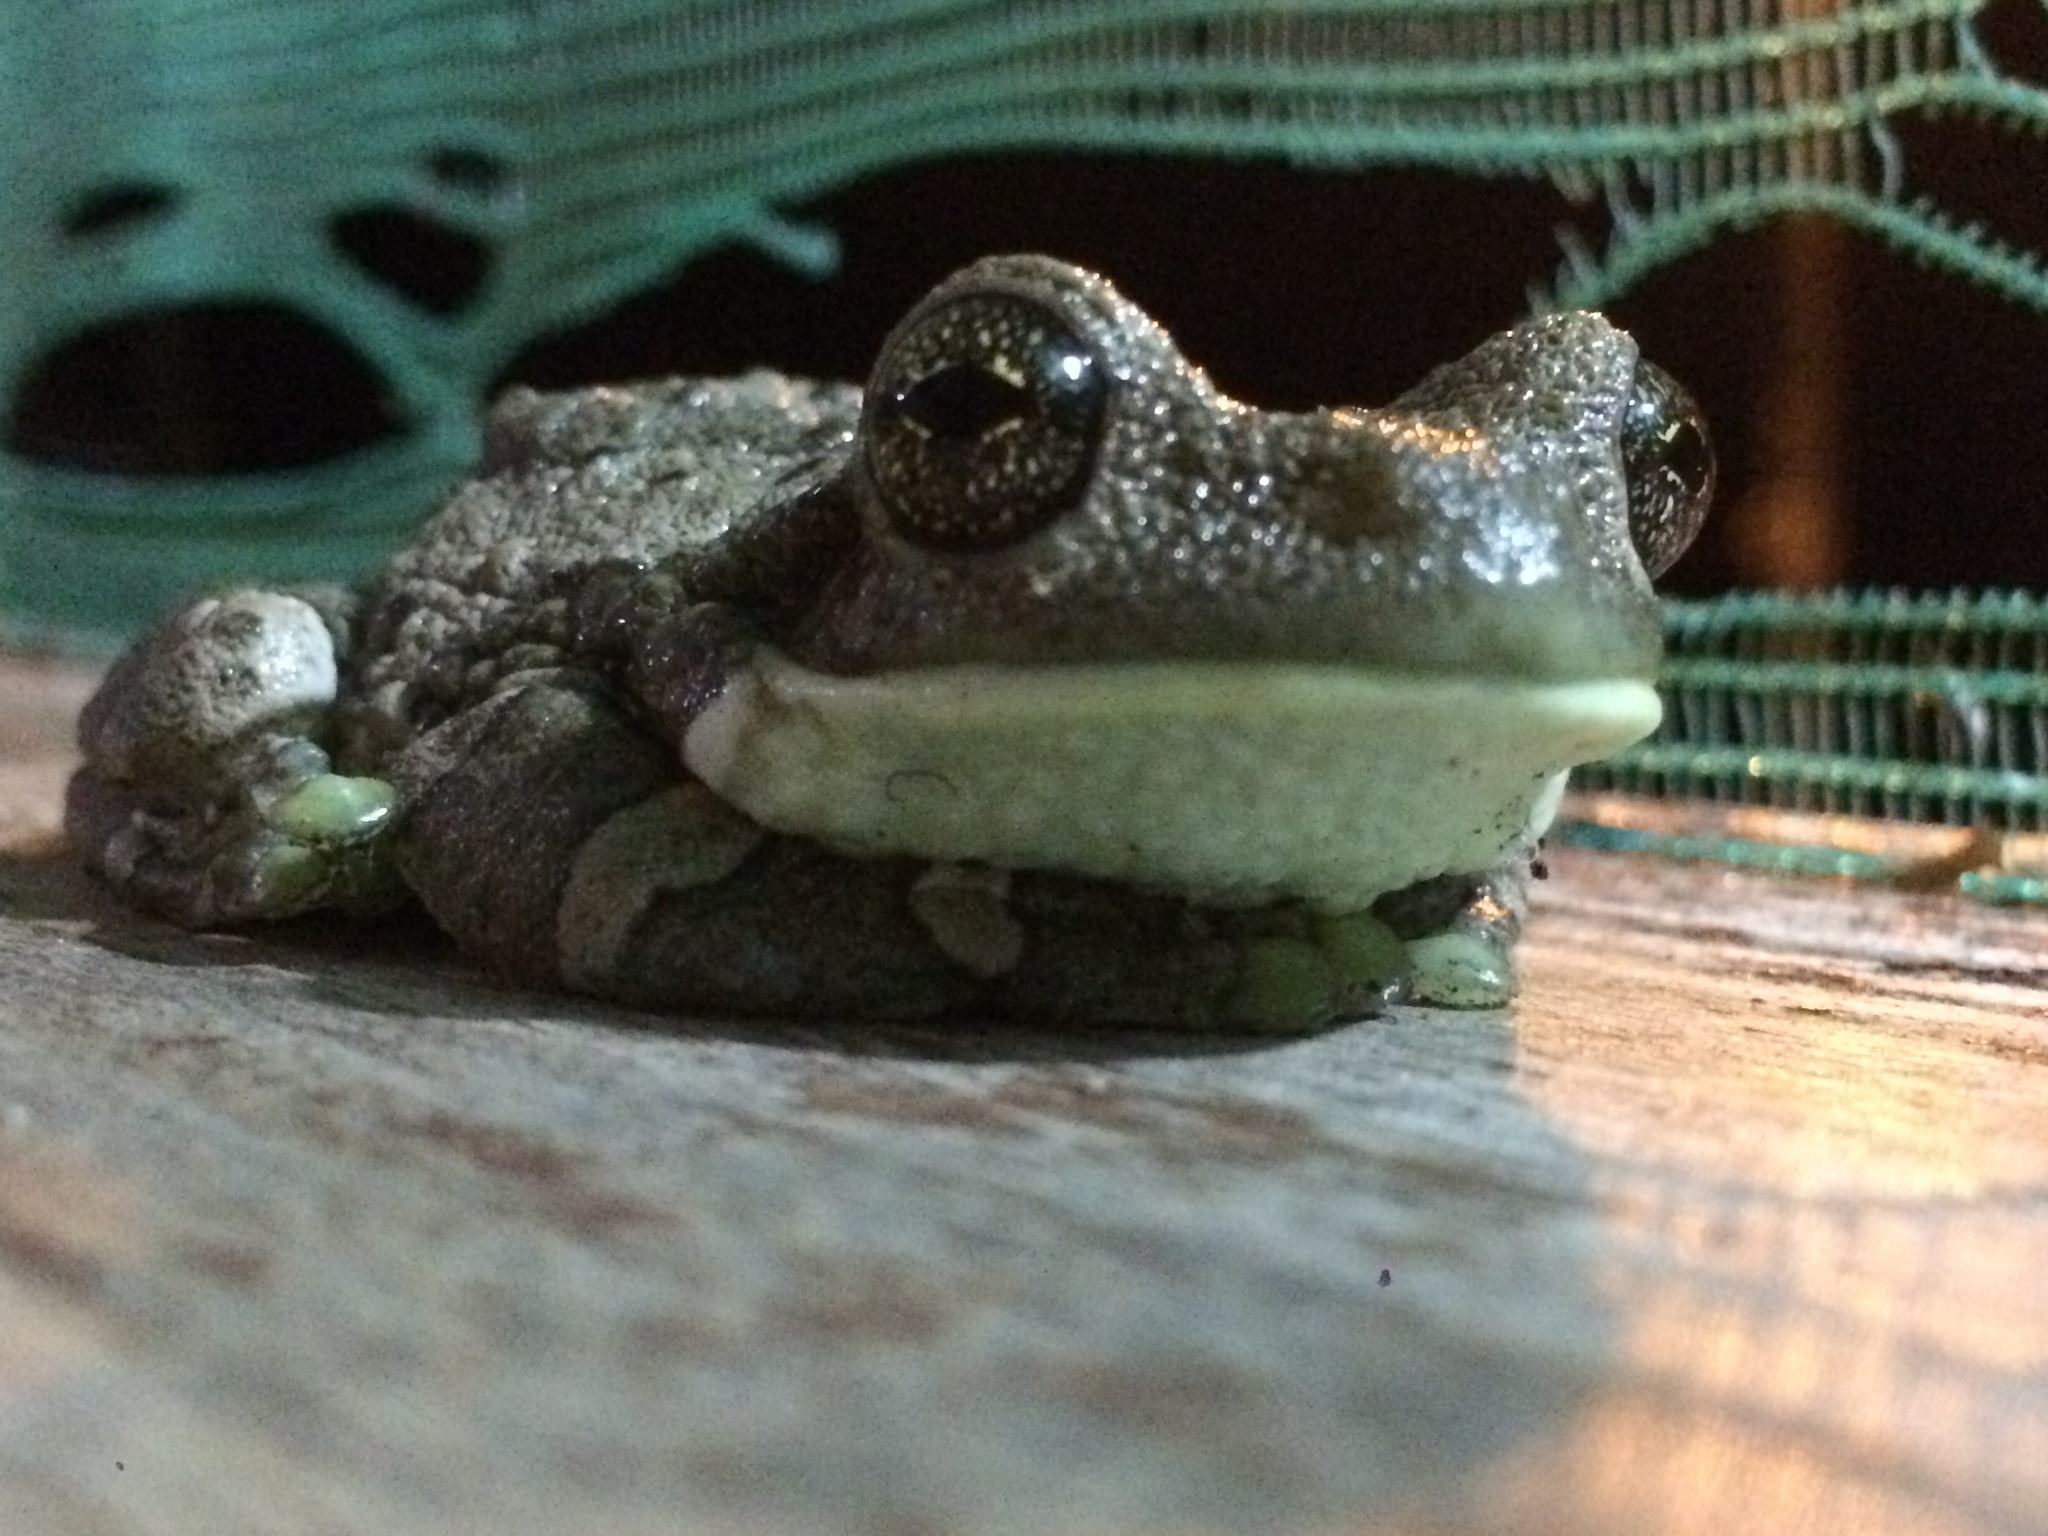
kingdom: Animalia
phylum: Chordata
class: Amphibia
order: Anura
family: Hylidae
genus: Trachycephalus
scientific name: Trachycephalus typhonius
